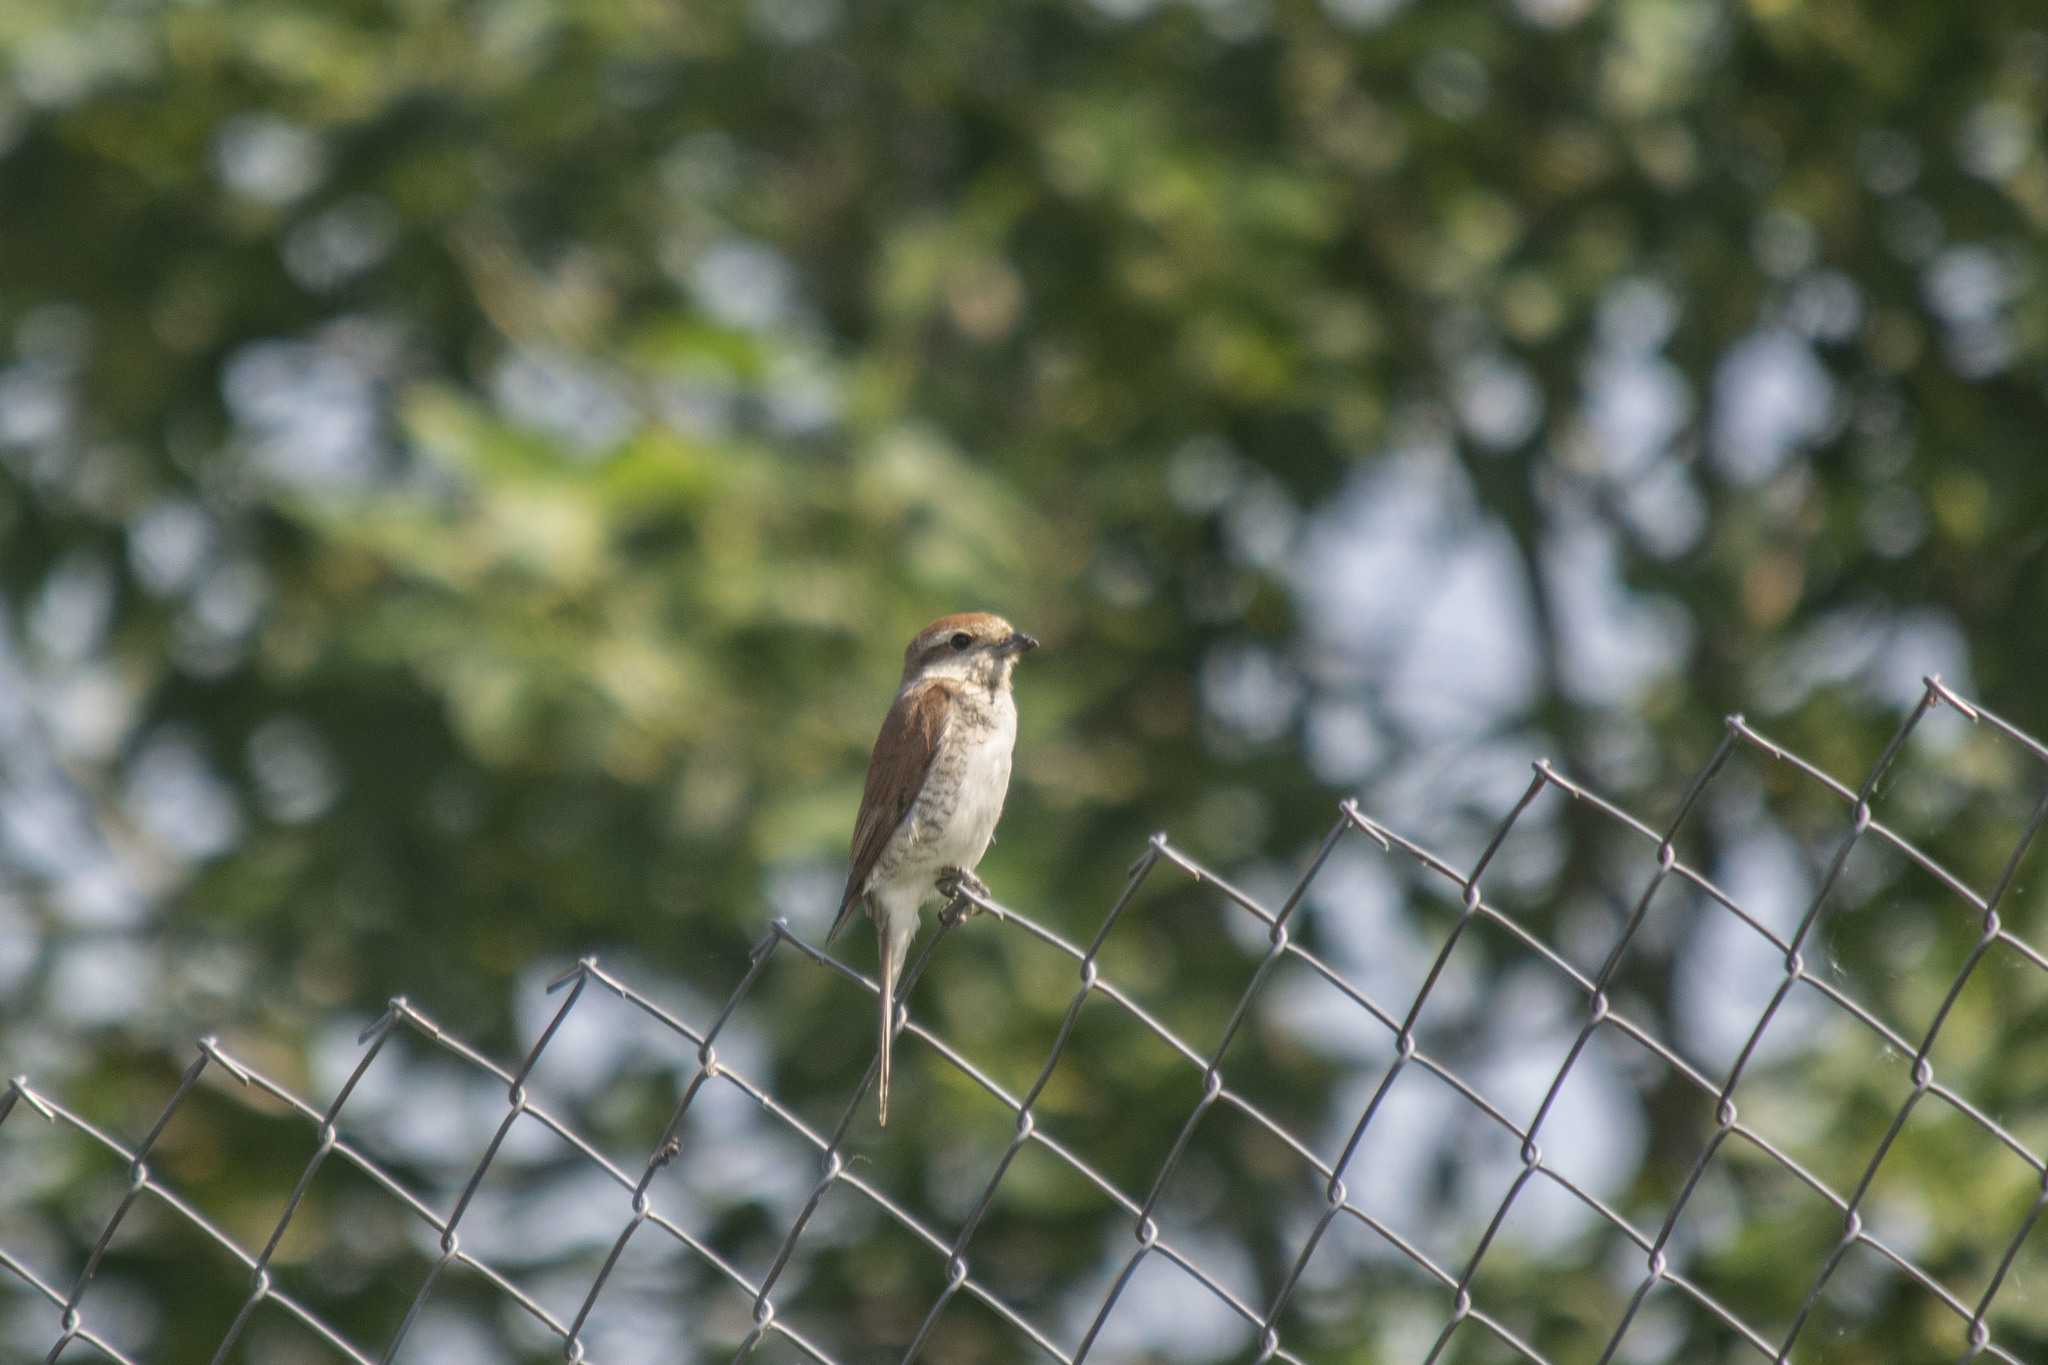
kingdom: Animalia
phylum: Chordata
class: Aves
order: Passeriformes
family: Laniidae
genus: Lanius
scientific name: Lanius collurio
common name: Red-backed shrike
